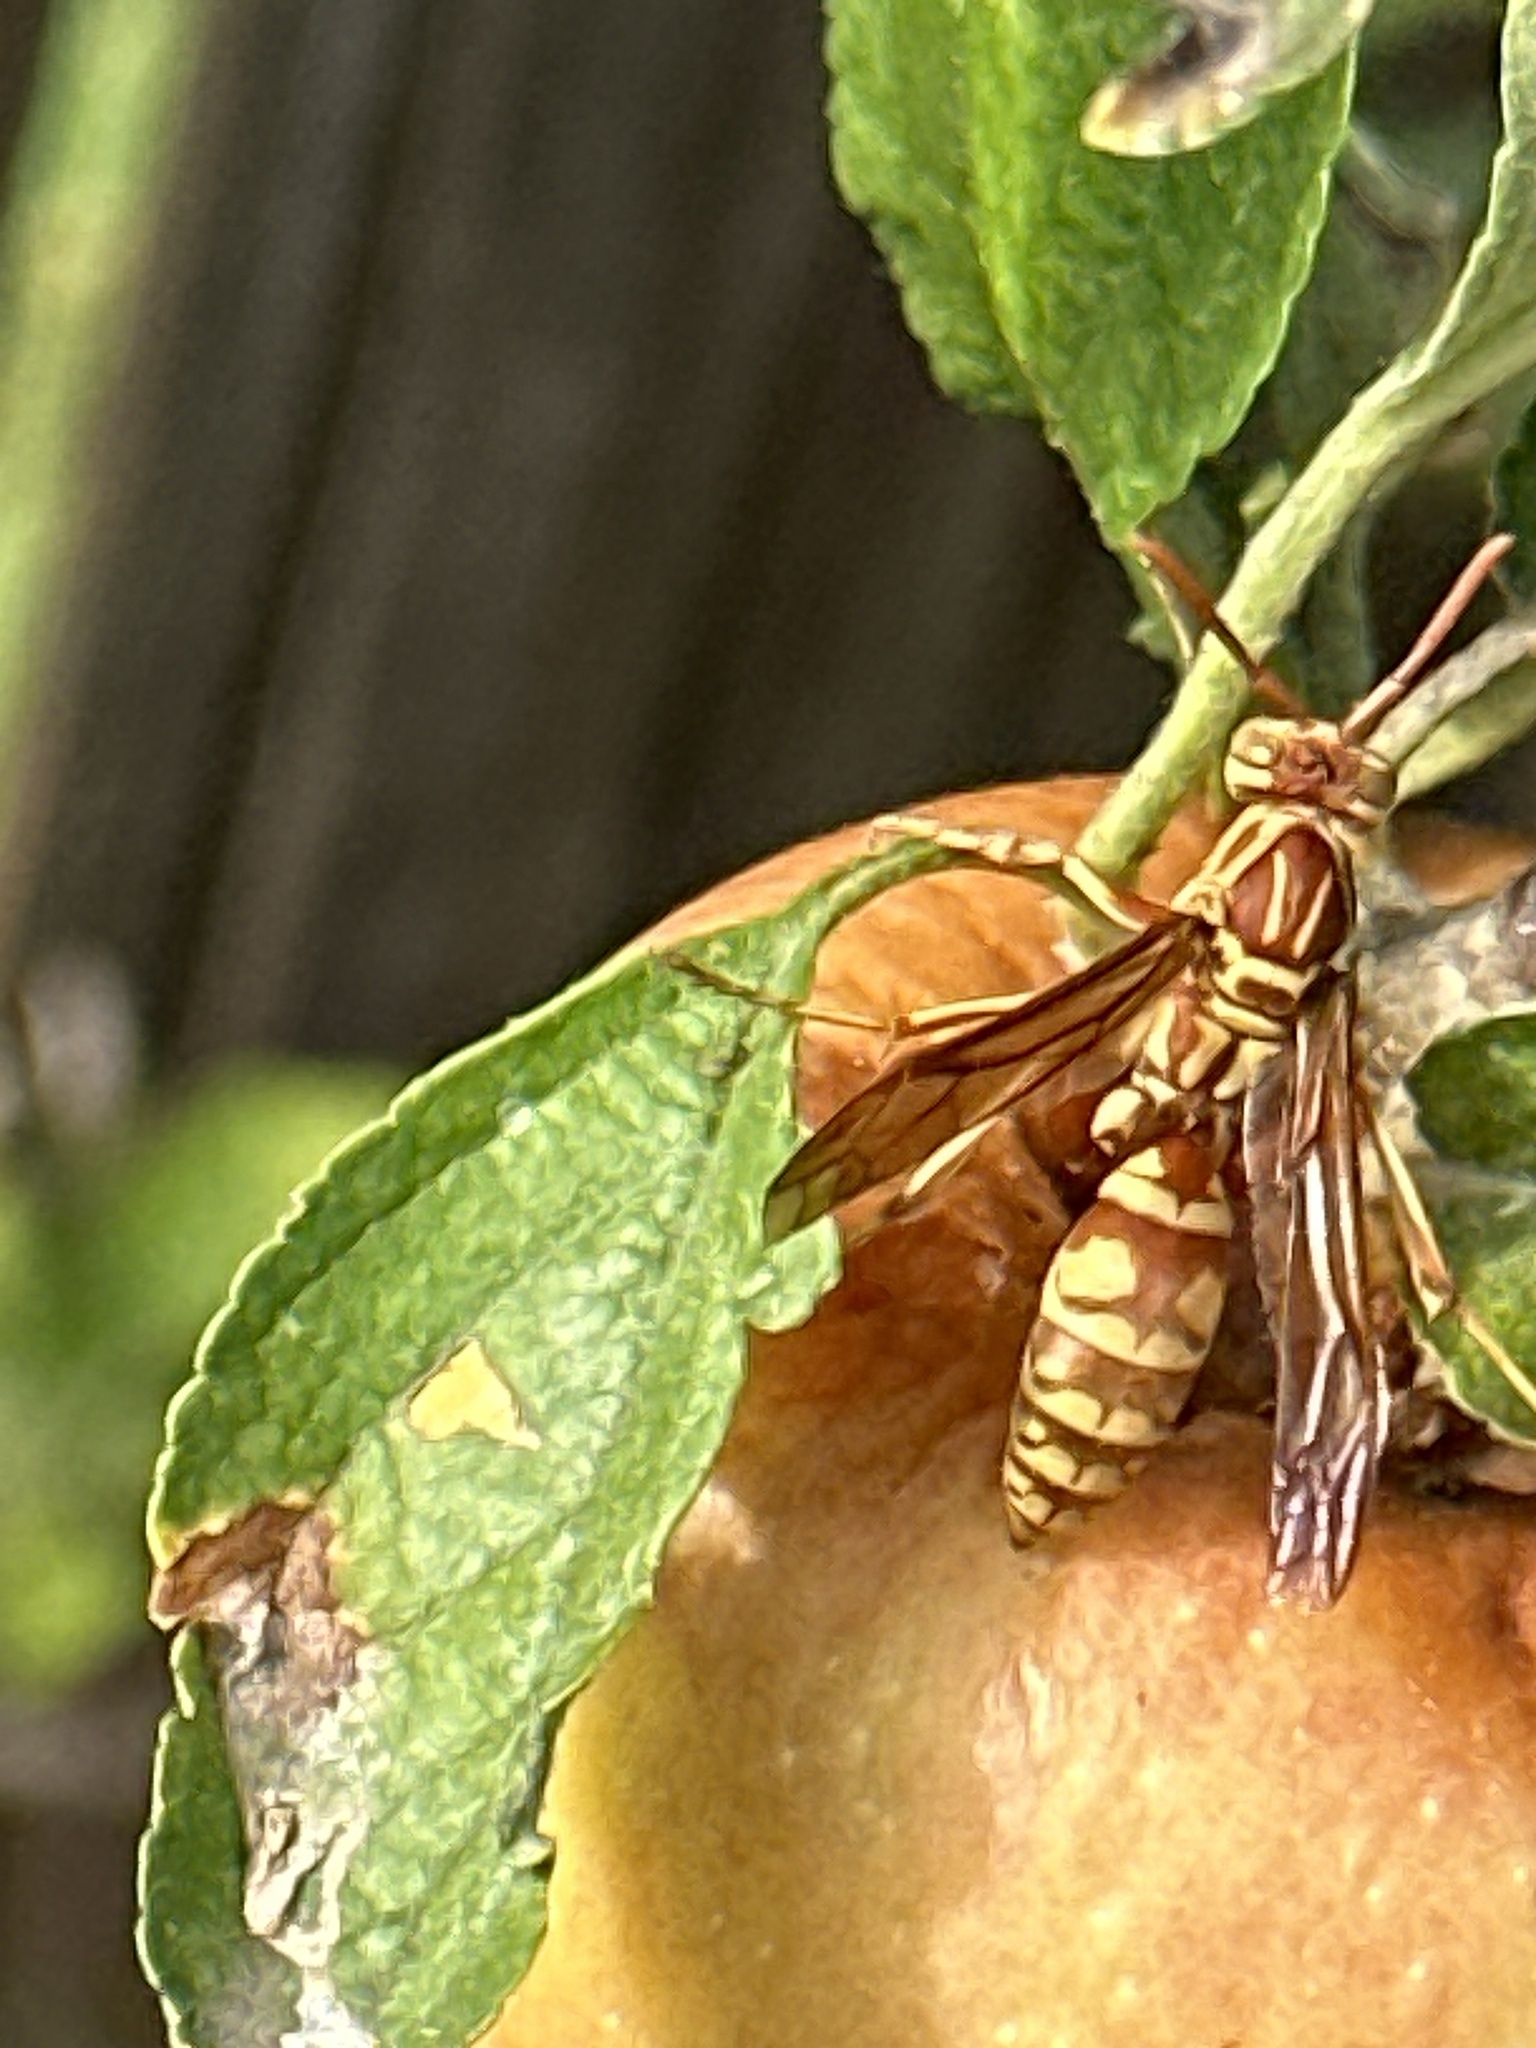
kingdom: Animalia
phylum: Arthropoda
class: Insecta
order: Hymenoptera
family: Eumenidae
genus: Polistes
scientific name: Polistes apachus
